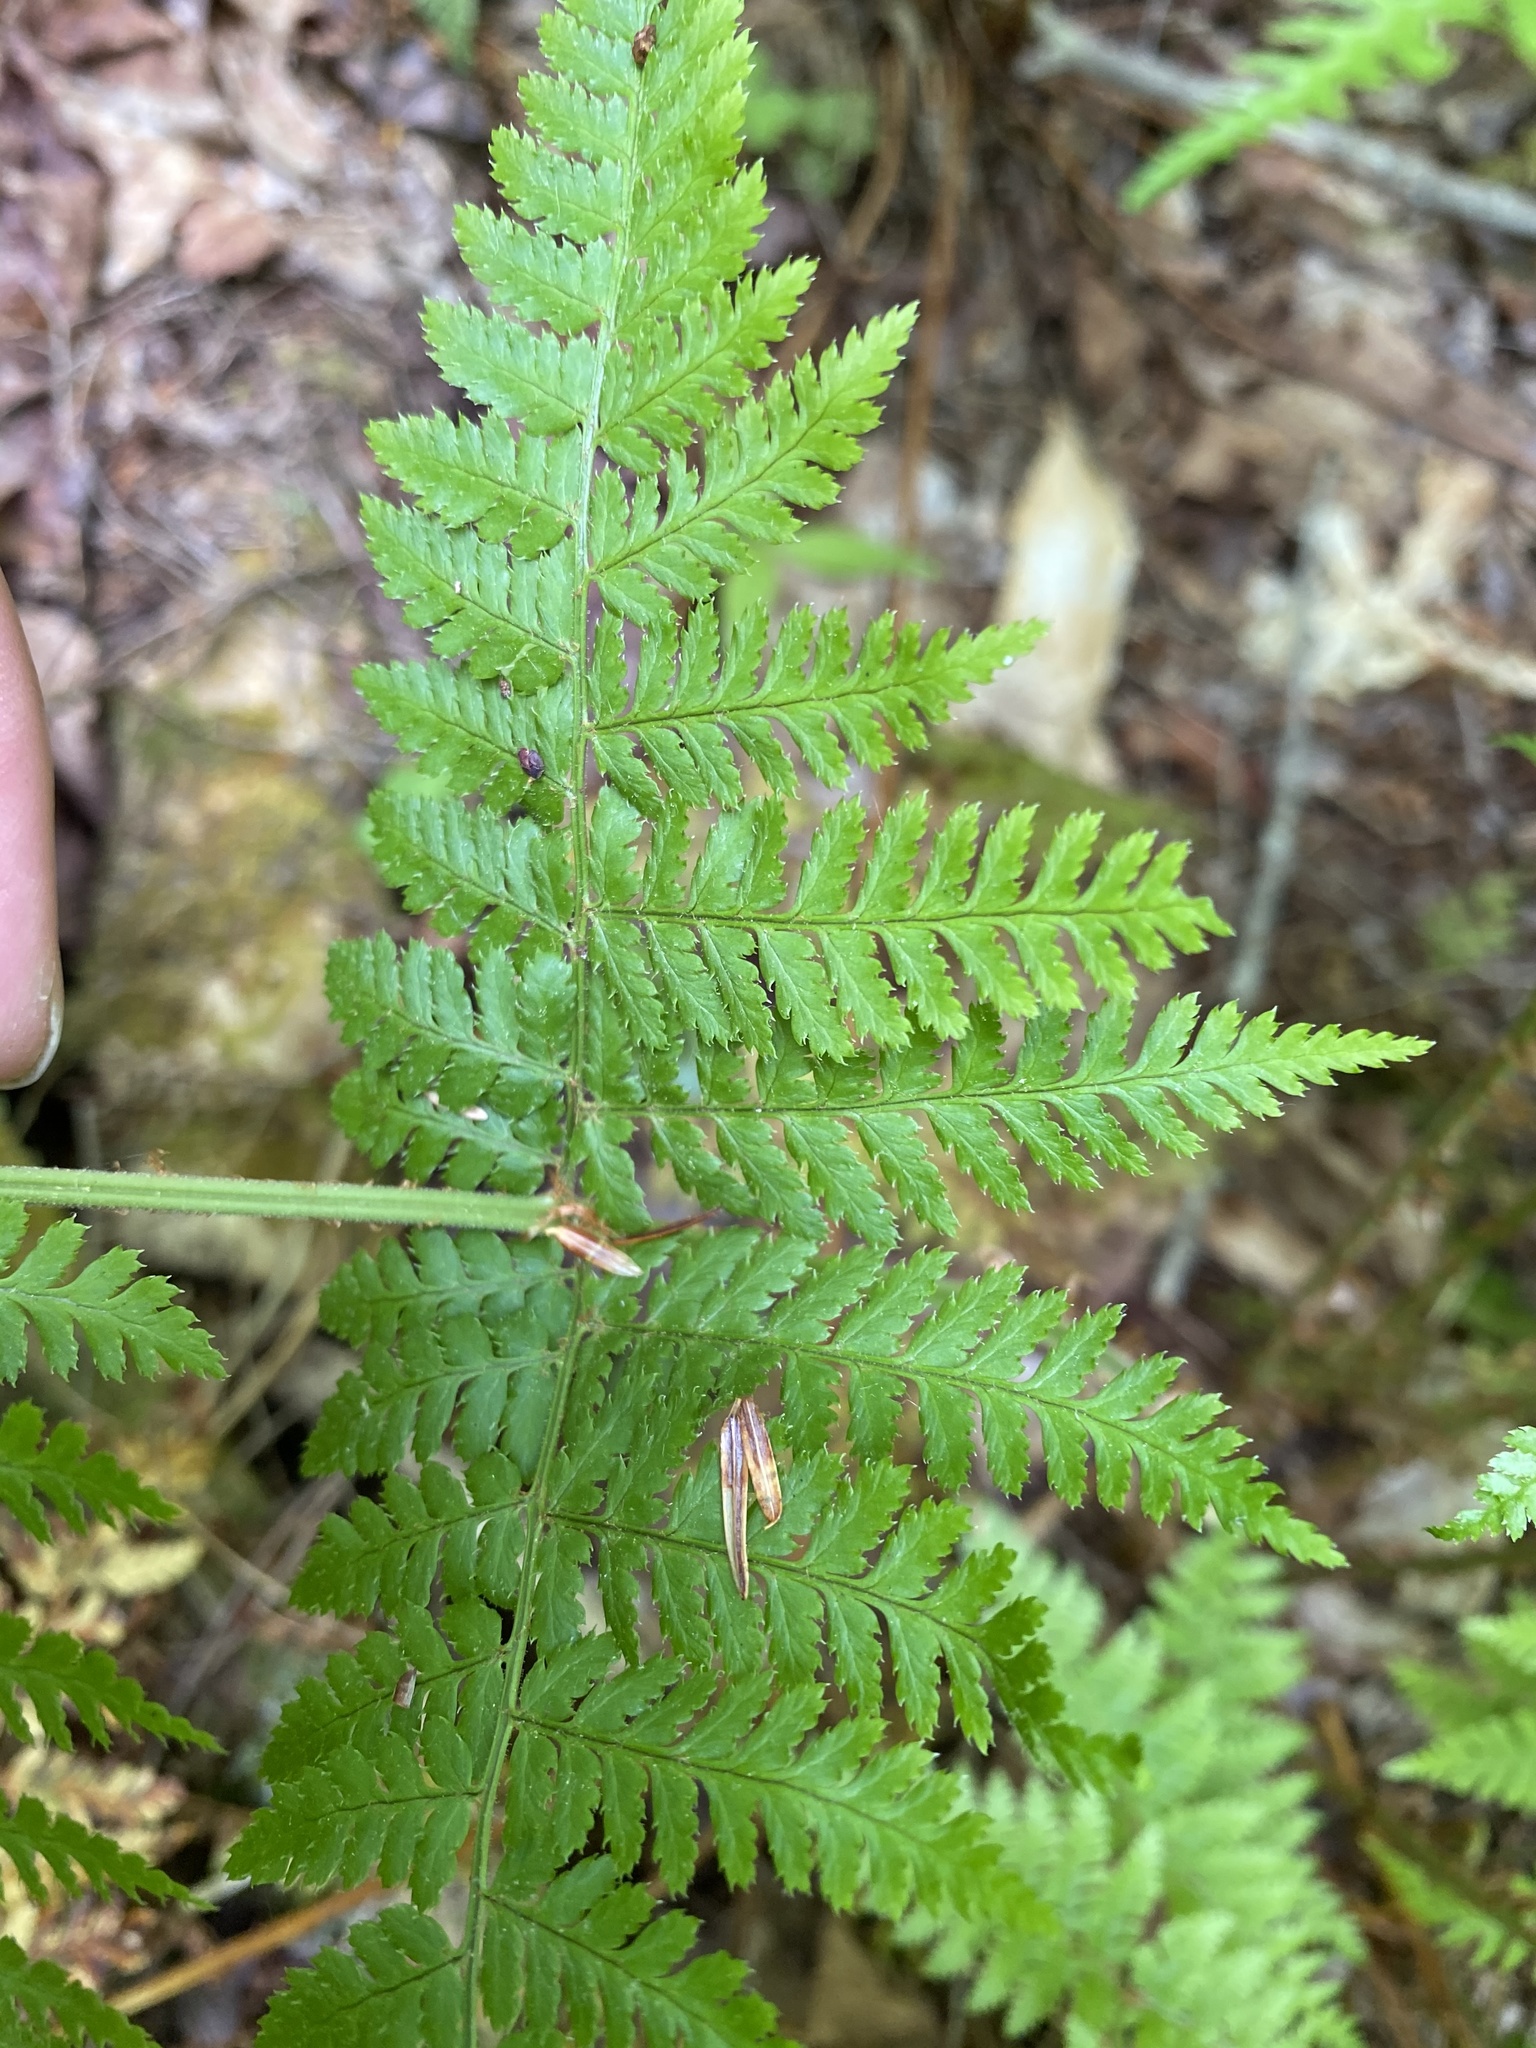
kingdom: Plantae
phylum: Tracheophyta
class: Polypodiopsida
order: Polypodiales
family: Dryopteridaceae
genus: Dryopteris
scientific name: Dryopteris campyloptera
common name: Mountain wood fern
